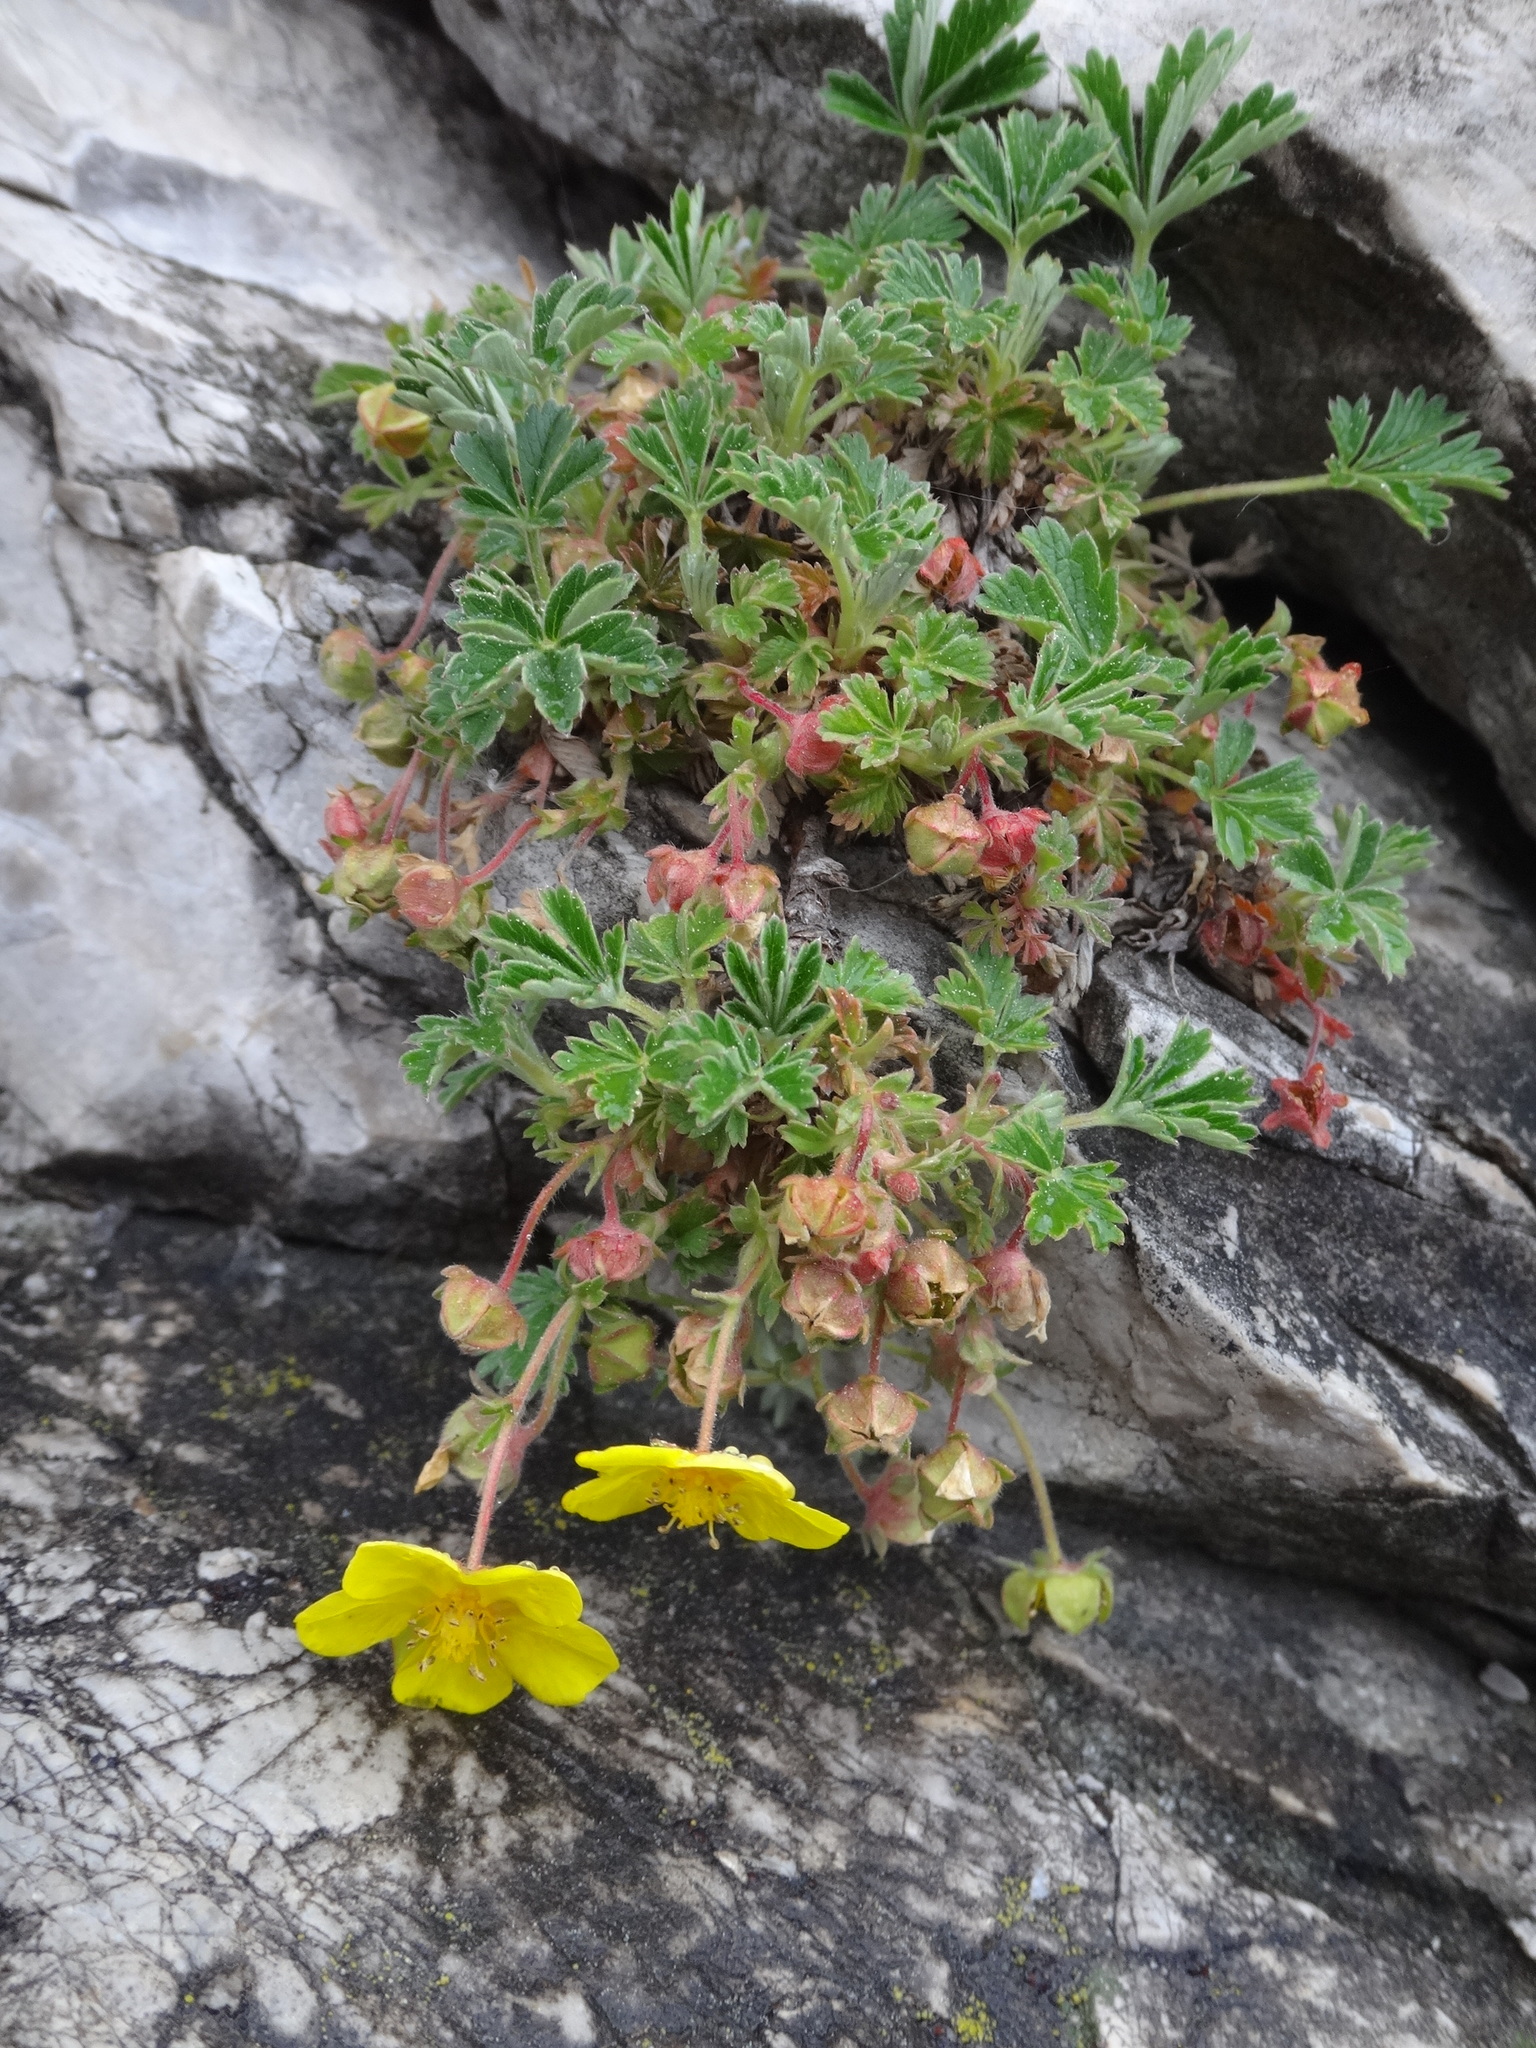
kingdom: Plantae
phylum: Tracheophyta
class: Magnoliopsida
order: Rosales
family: Rosaceae
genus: Potentilla
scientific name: Potentilla incana
